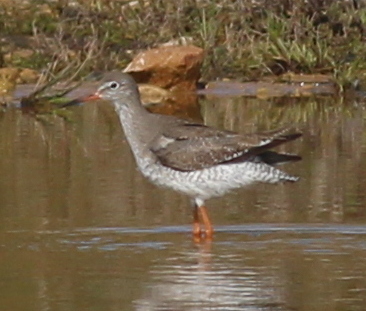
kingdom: Animalia
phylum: Chordata
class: Aves
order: Charadriiformes
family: Scolopacidae
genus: Tringa
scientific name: Tringa totanus
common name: Common redshank
